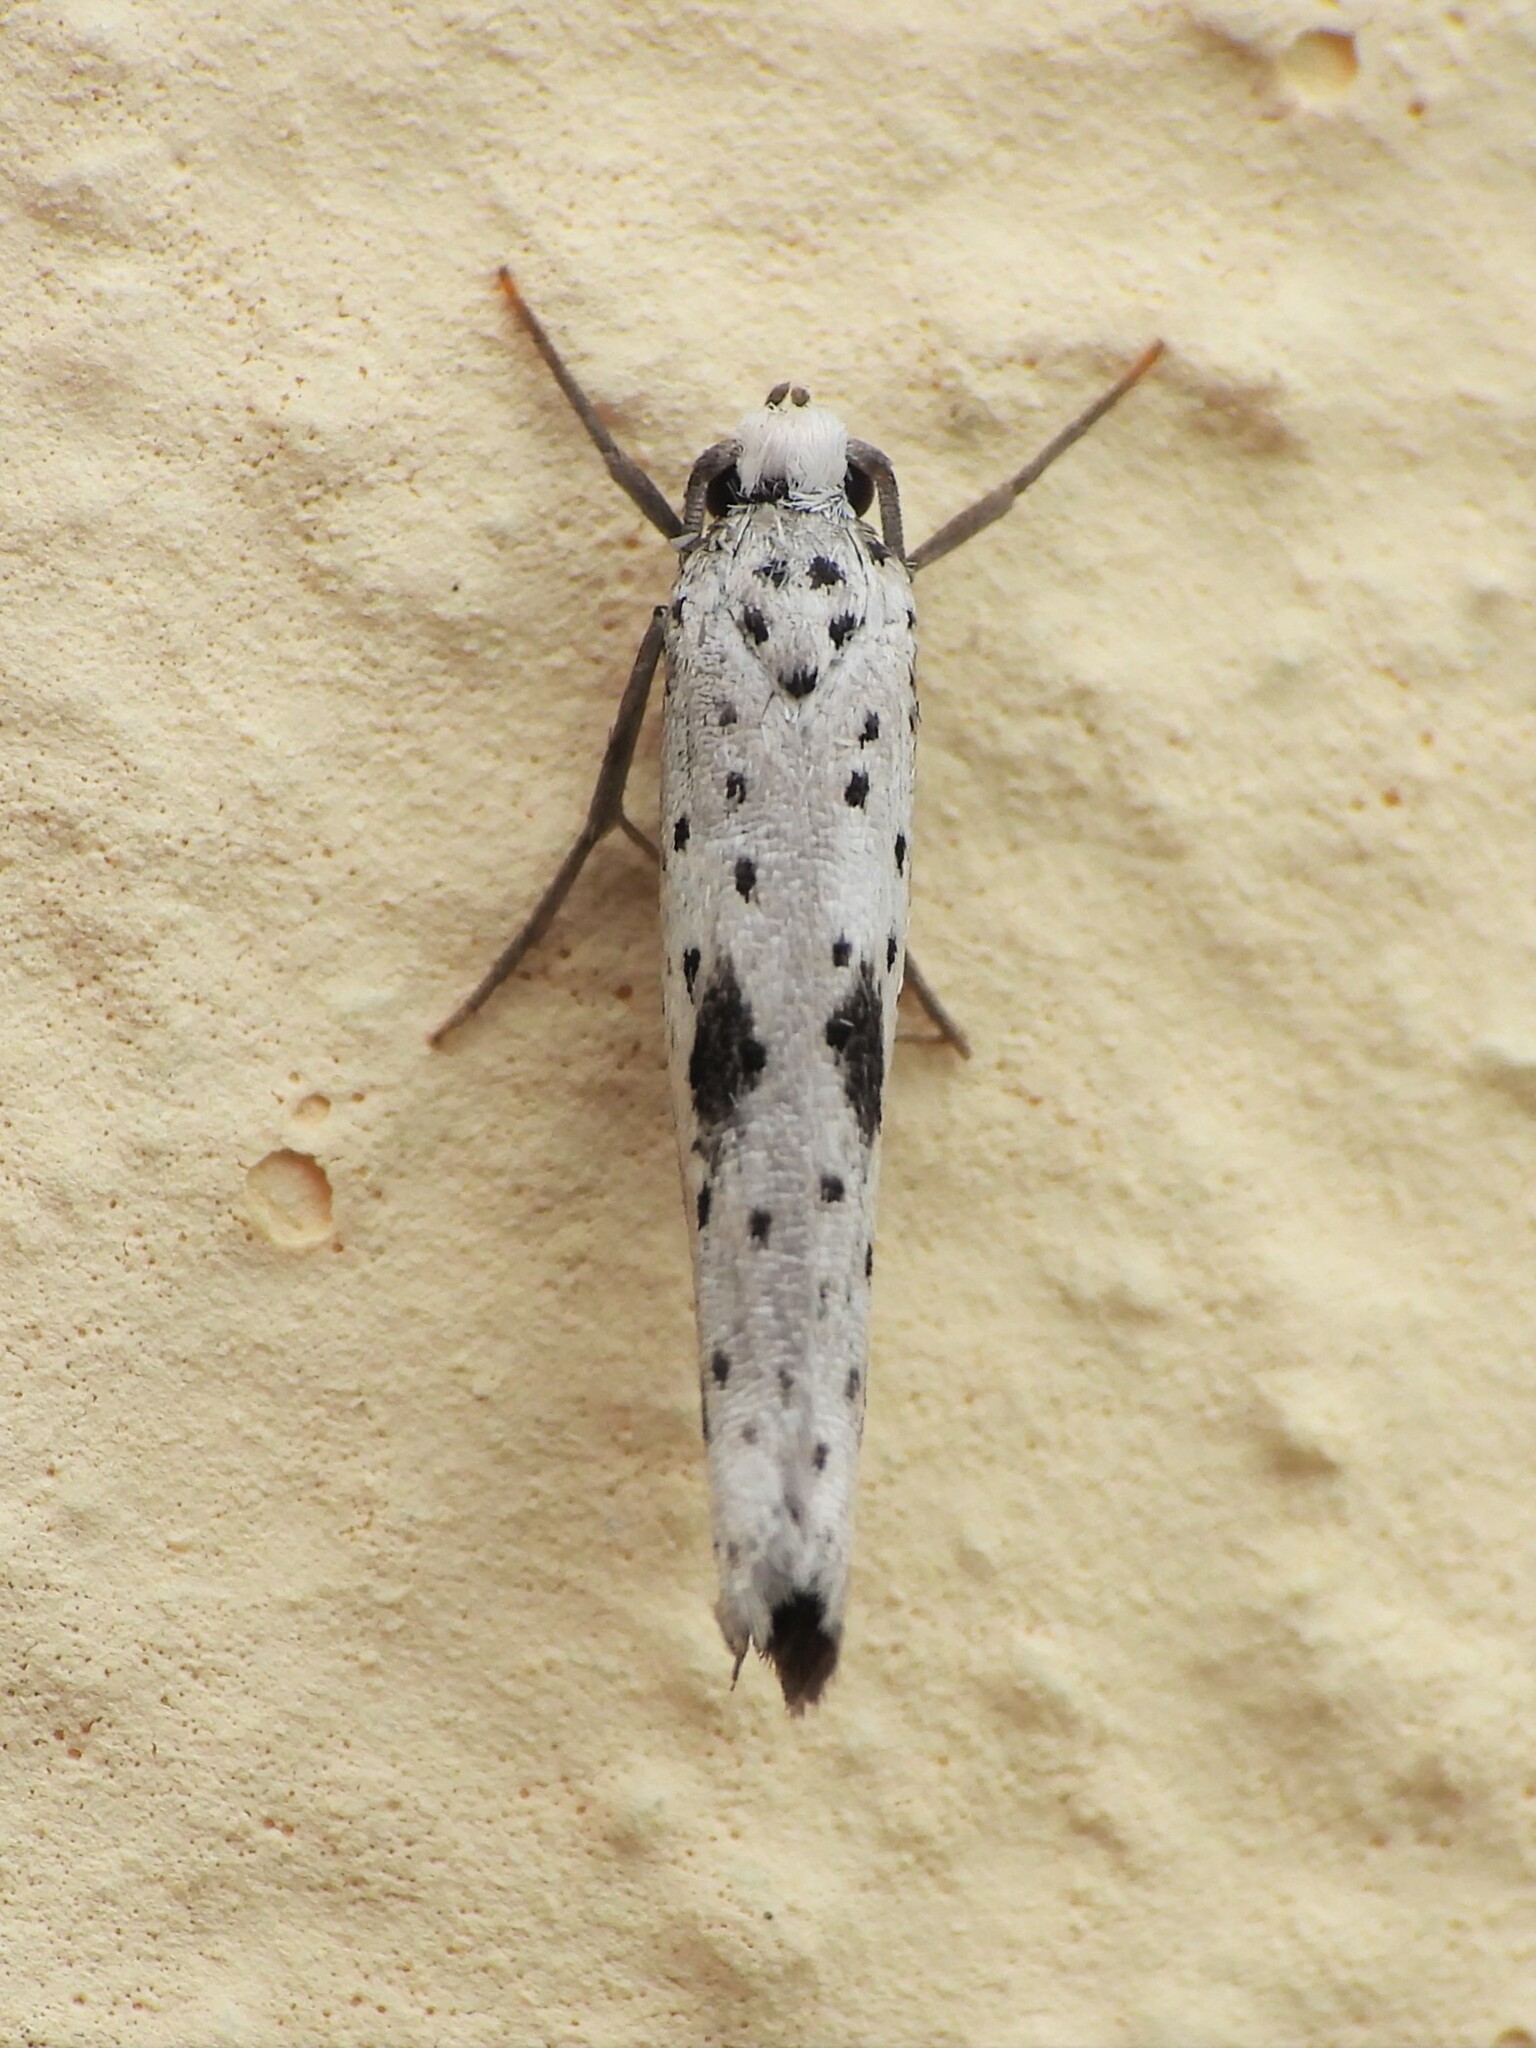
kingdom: Animalia
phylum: Arthropoda
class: Insecta
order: Lepidoptera
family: Yponomeutidae
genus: Yponomeuta
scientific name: Yponomeuta plumbella
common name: Black-tipped ermine
